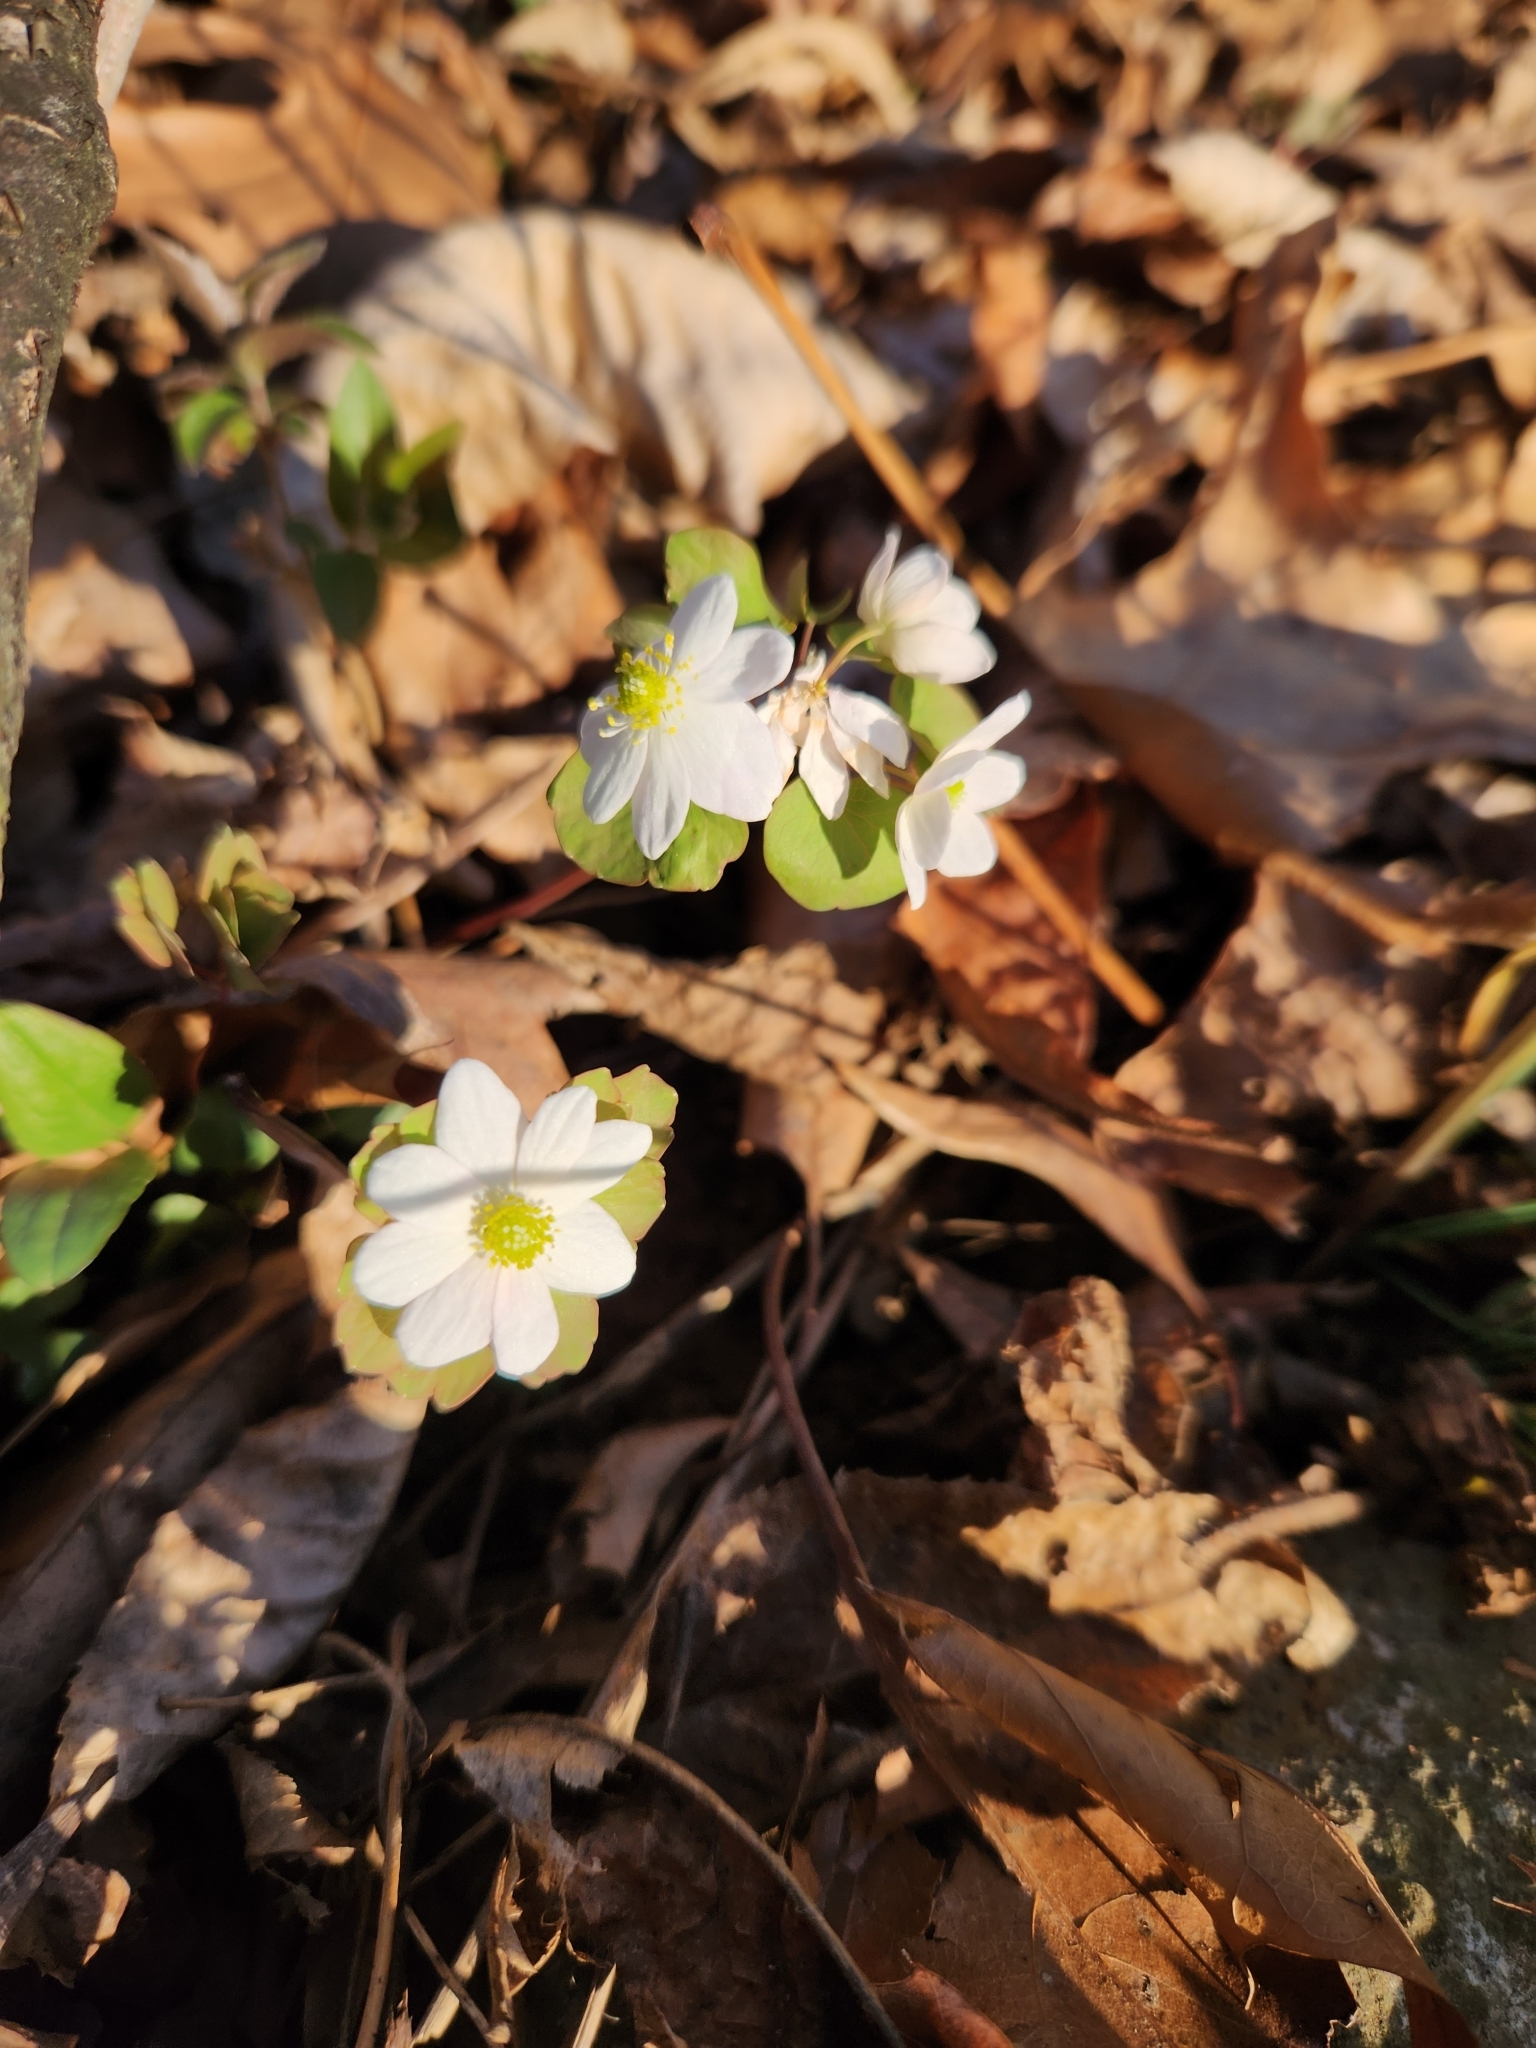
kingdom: Plantae
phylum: Tracheophyta
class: Magnoliopsida
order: Ranunculales
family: Ranunculaceae
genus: Thalictrum
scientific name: Thalictrum thalictroides
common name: Rue-anemone
